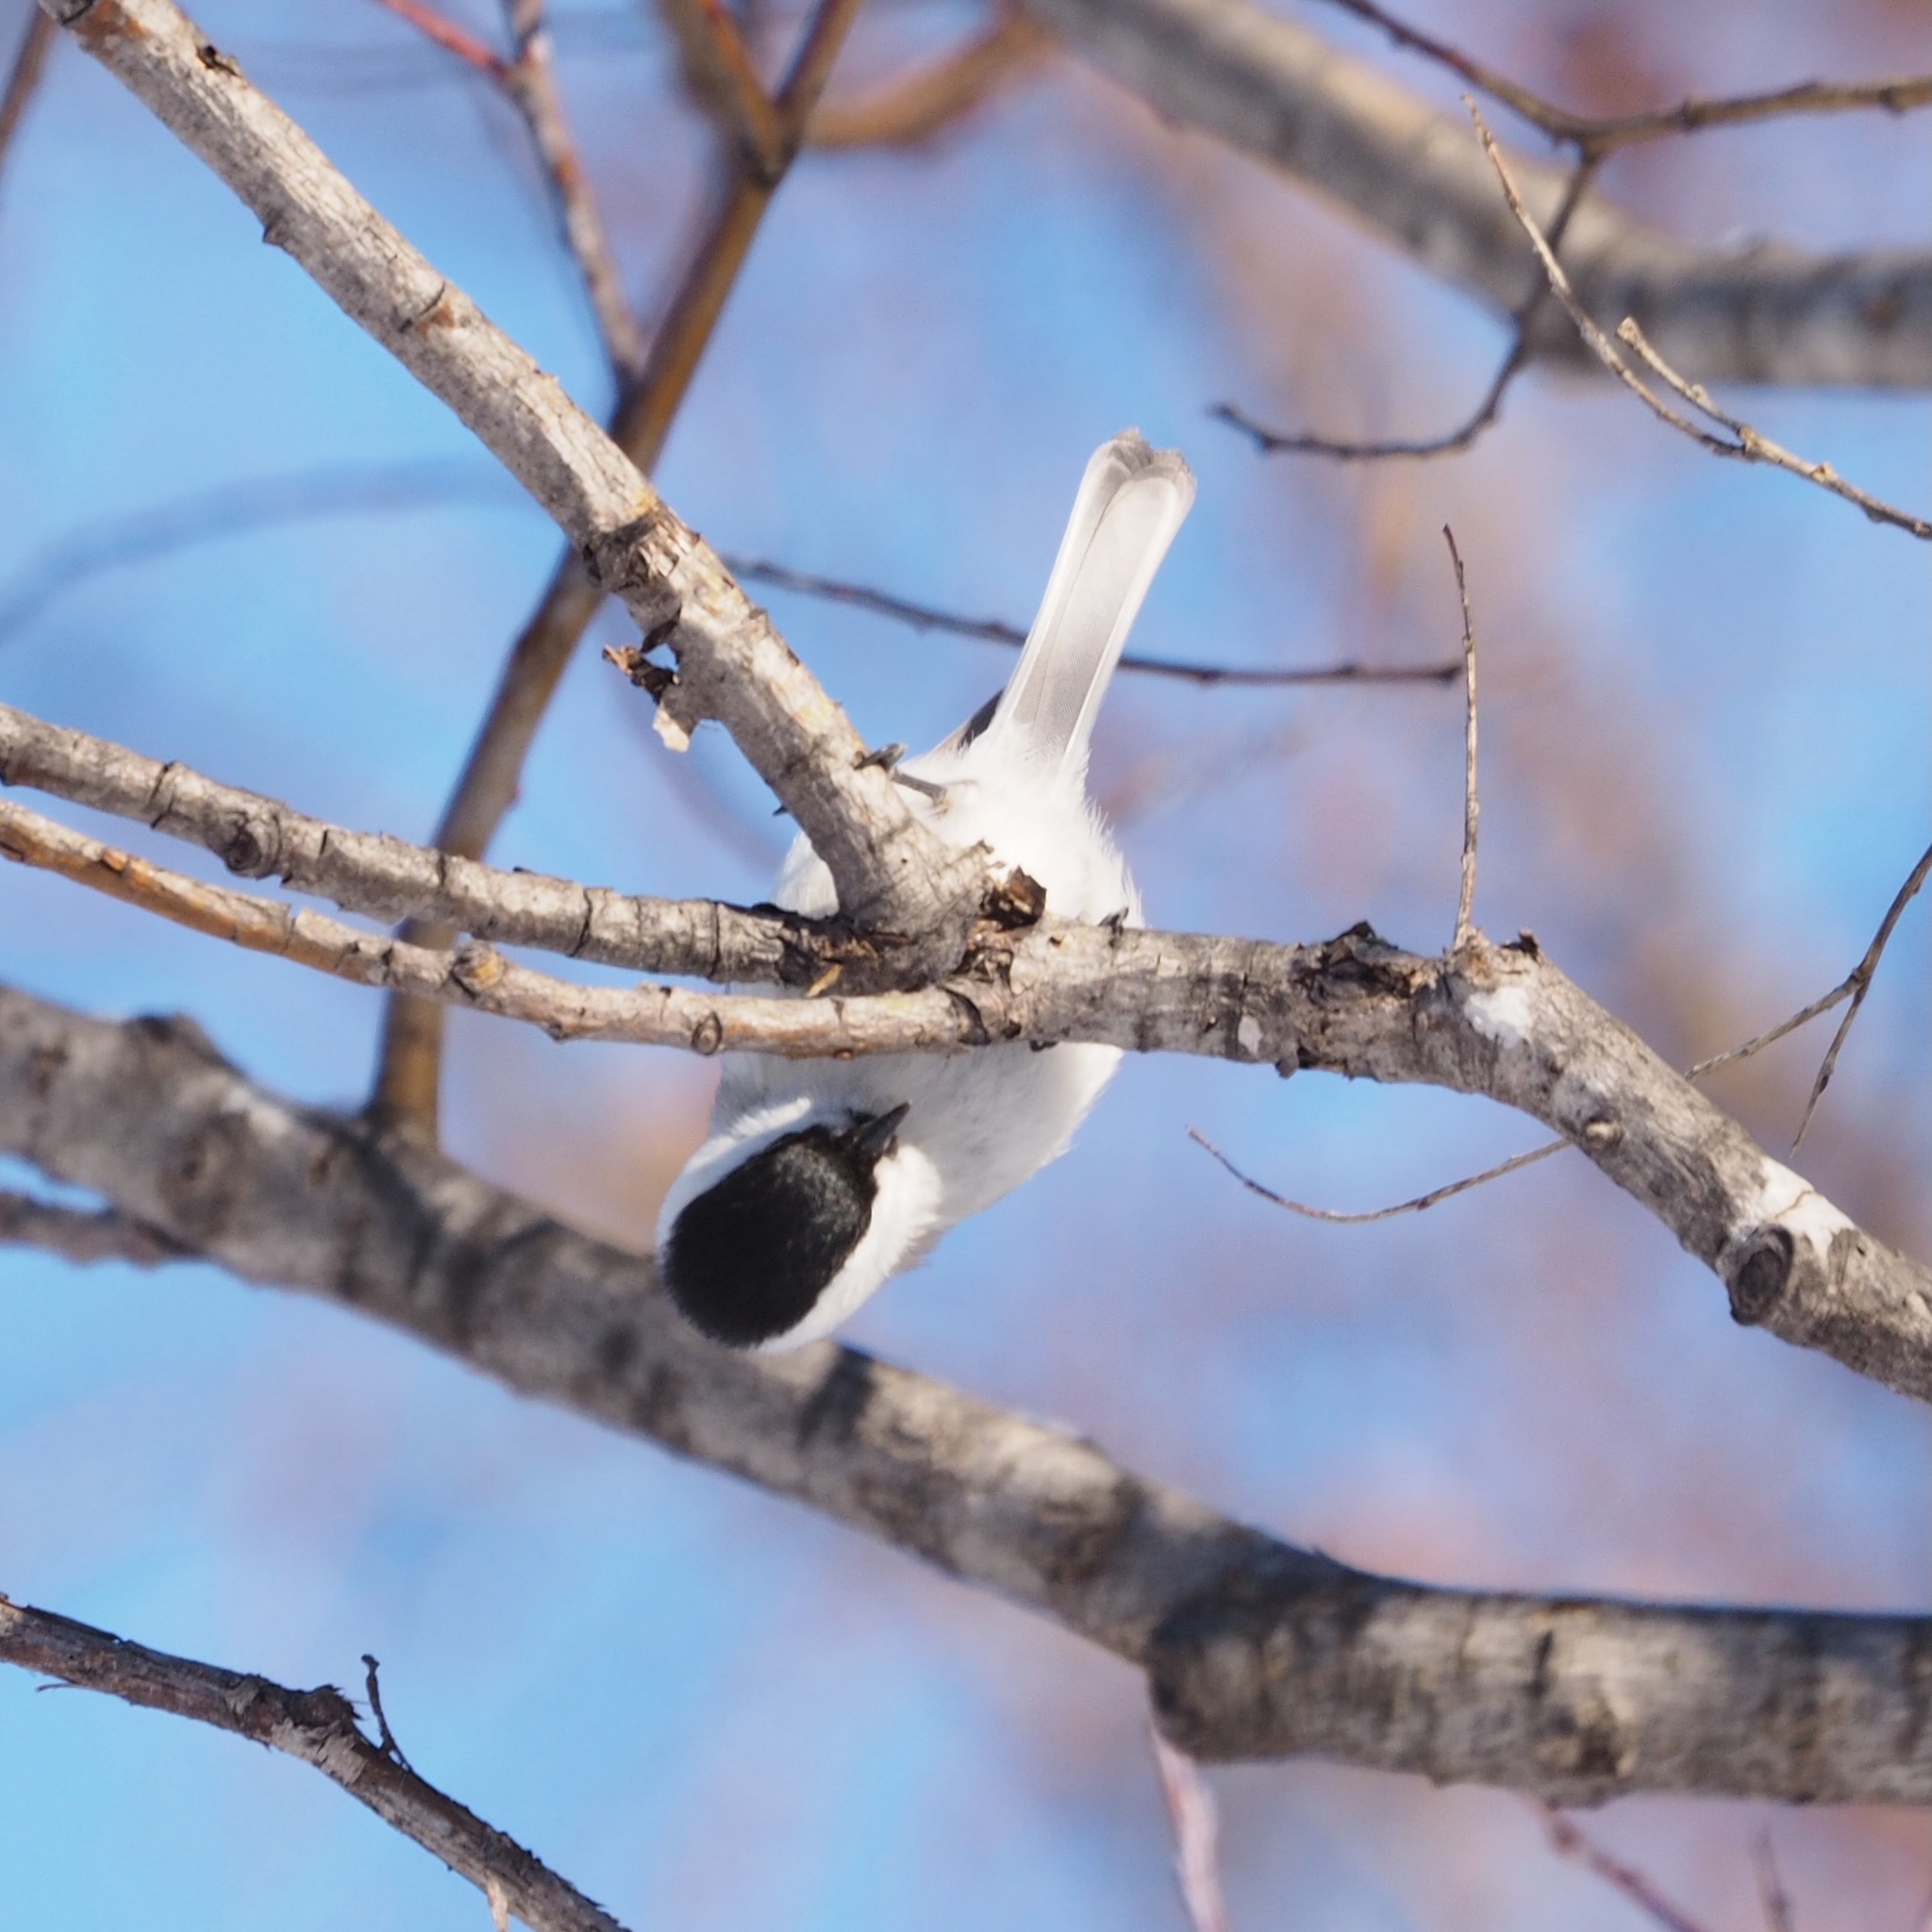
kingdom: Animalia
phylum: Chordata
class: Aves
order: Passeriformes
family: Paridae
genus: Poecile
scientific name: Poecile palustris
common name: Marsh tit
